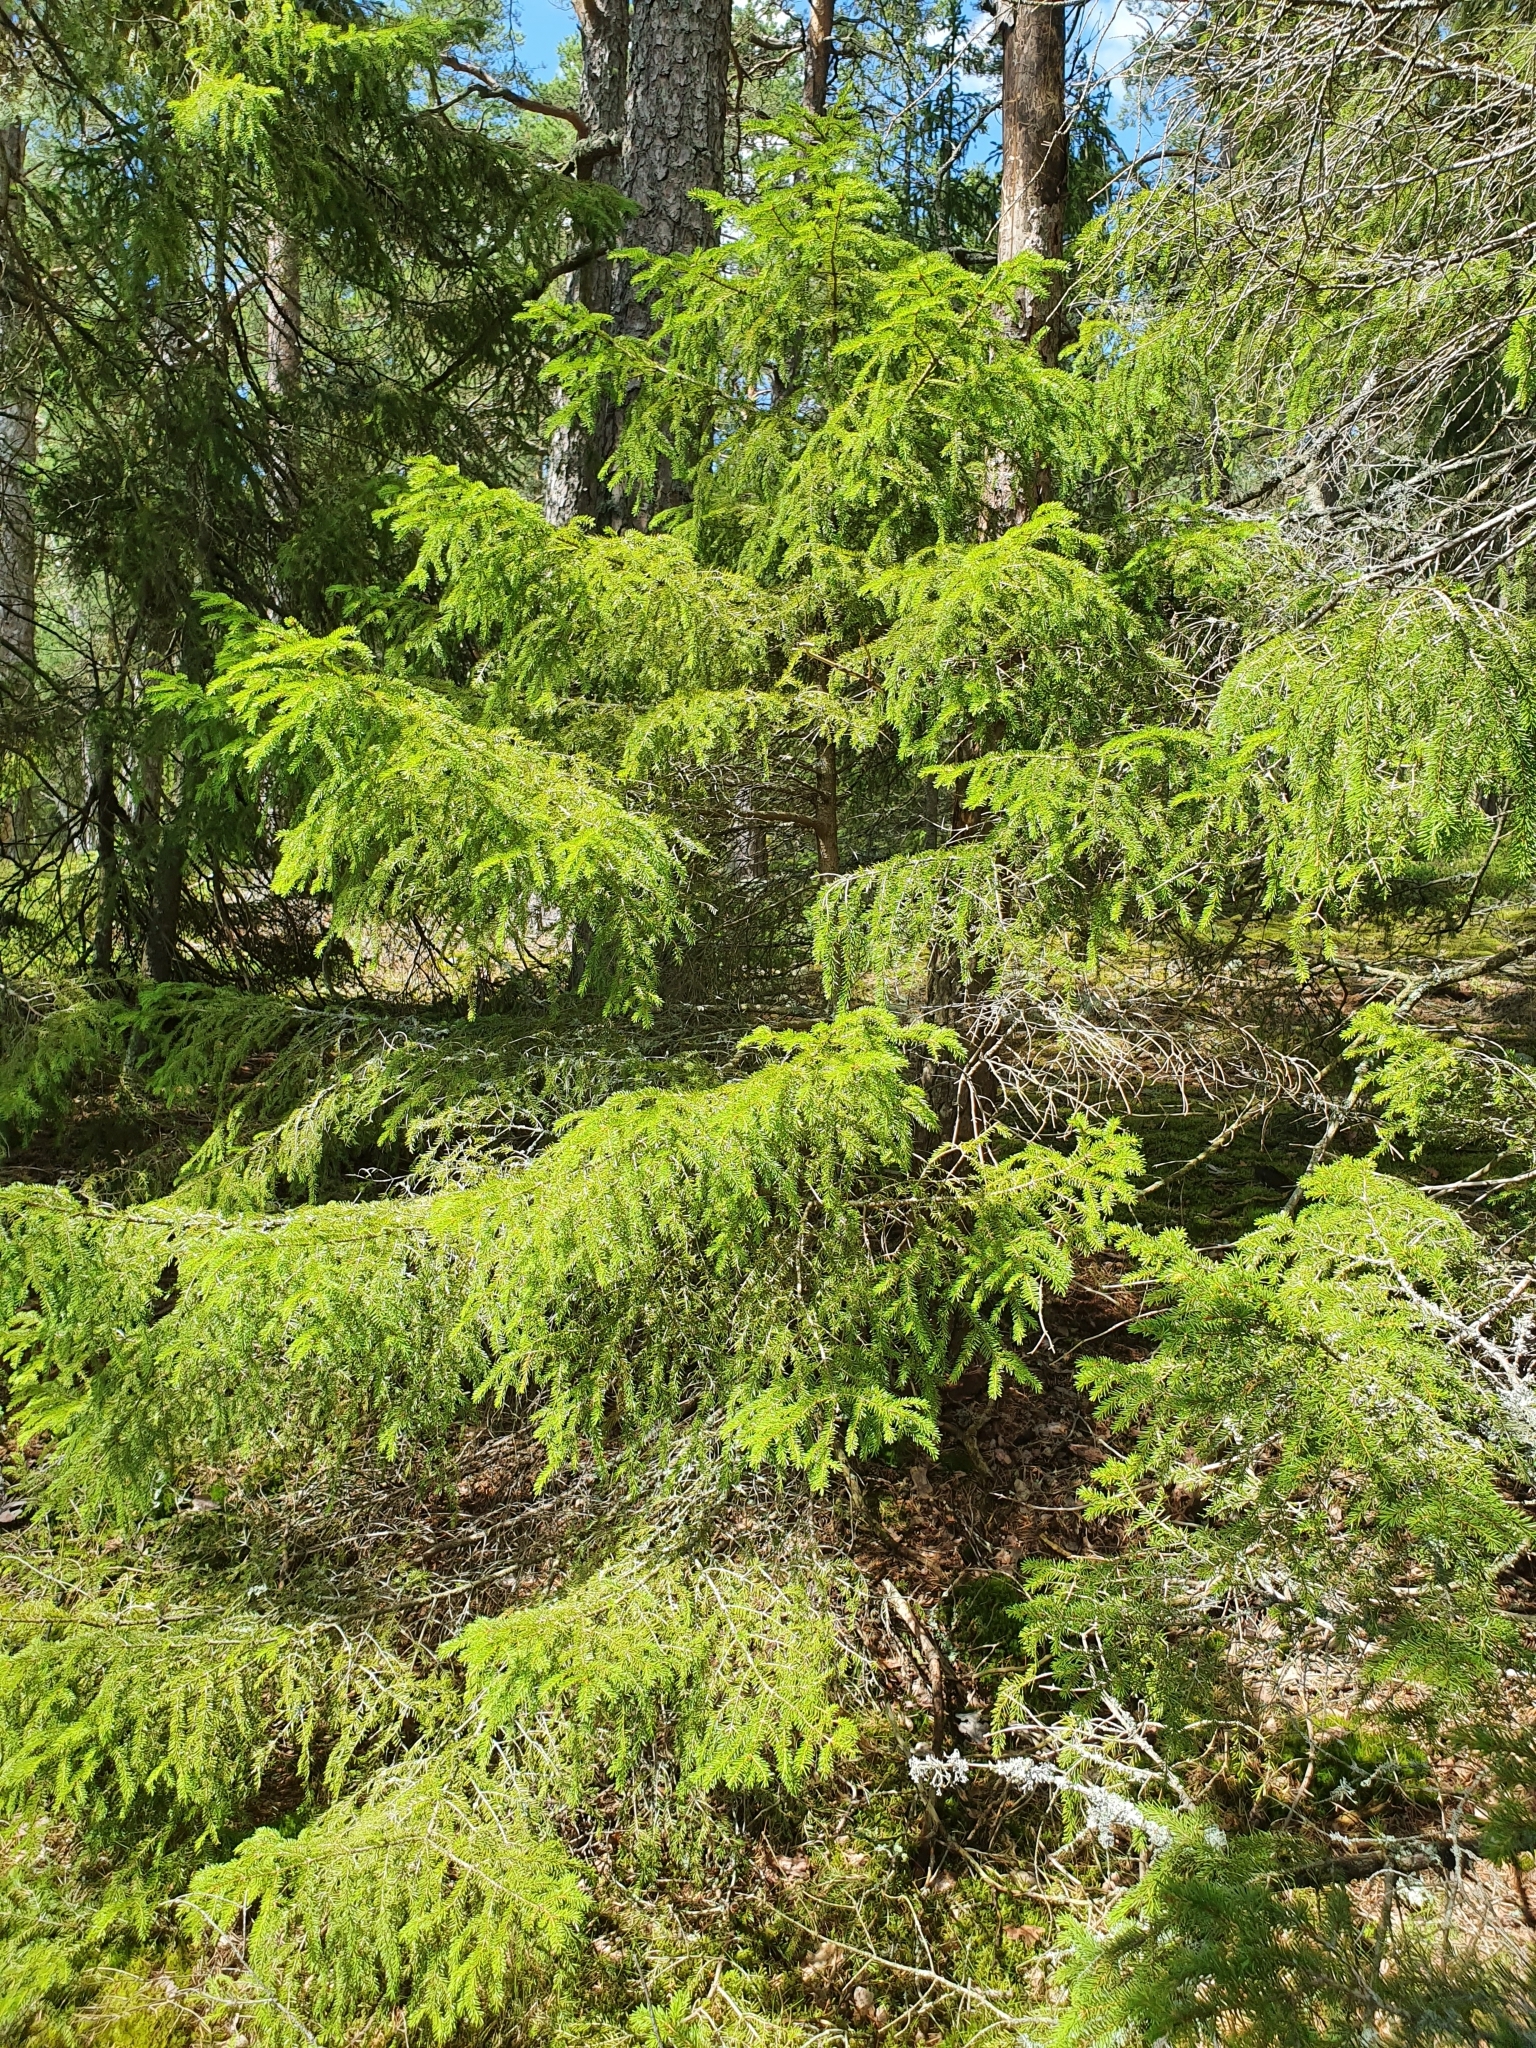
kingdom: Plantae
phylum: Tracheophyta
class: Pinopsida
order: Pinales
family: Pinaceae
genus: Picea
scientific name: Picea abies
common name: Norway spruce
